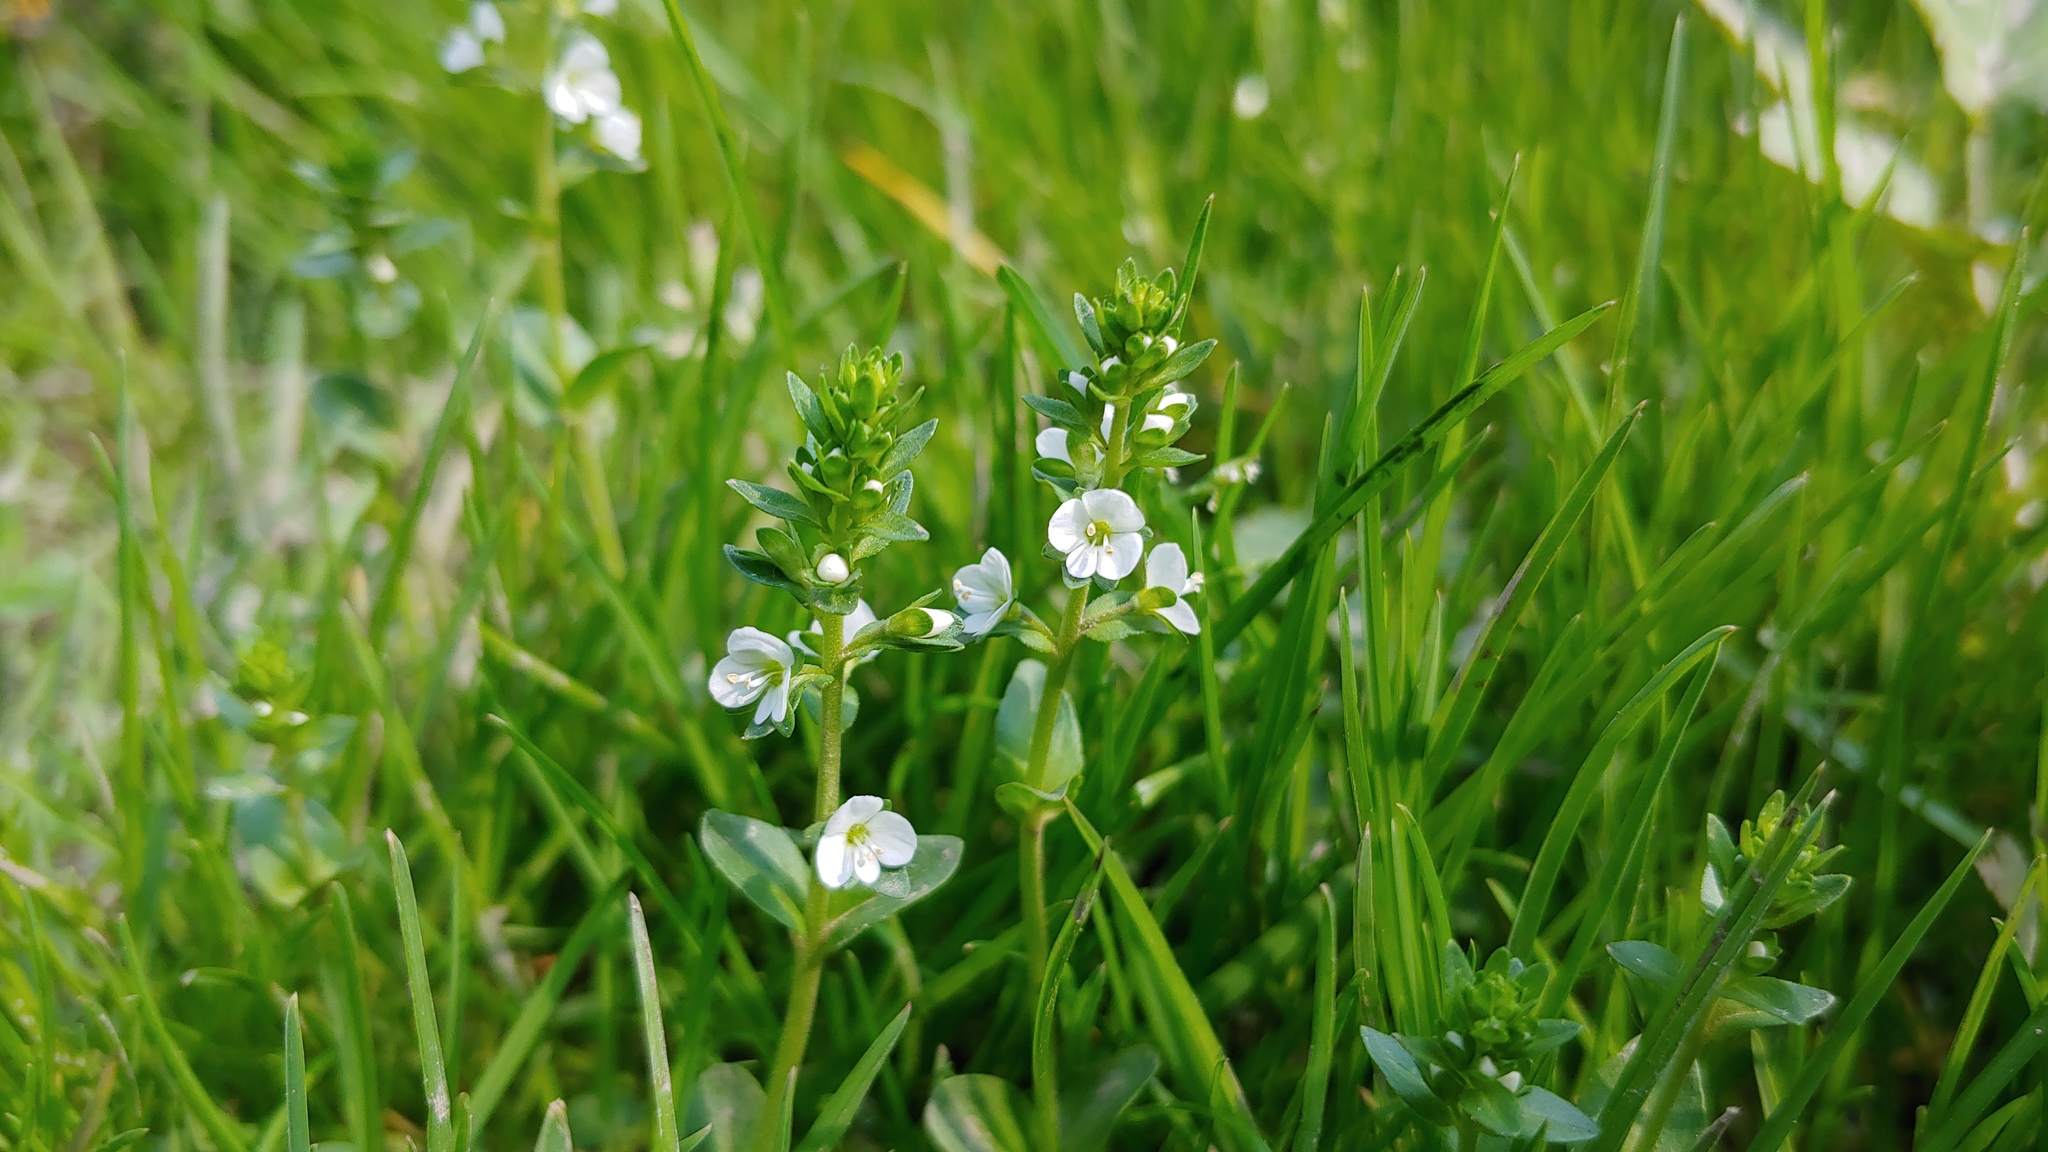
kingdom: Plantae
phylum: Tracheophyta
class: Magnoliopsida
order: Lamiales
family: Plantaginaceae
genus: Veronica
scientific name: Veronica serpyllifolia
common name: Thyme-leaved speedwell
